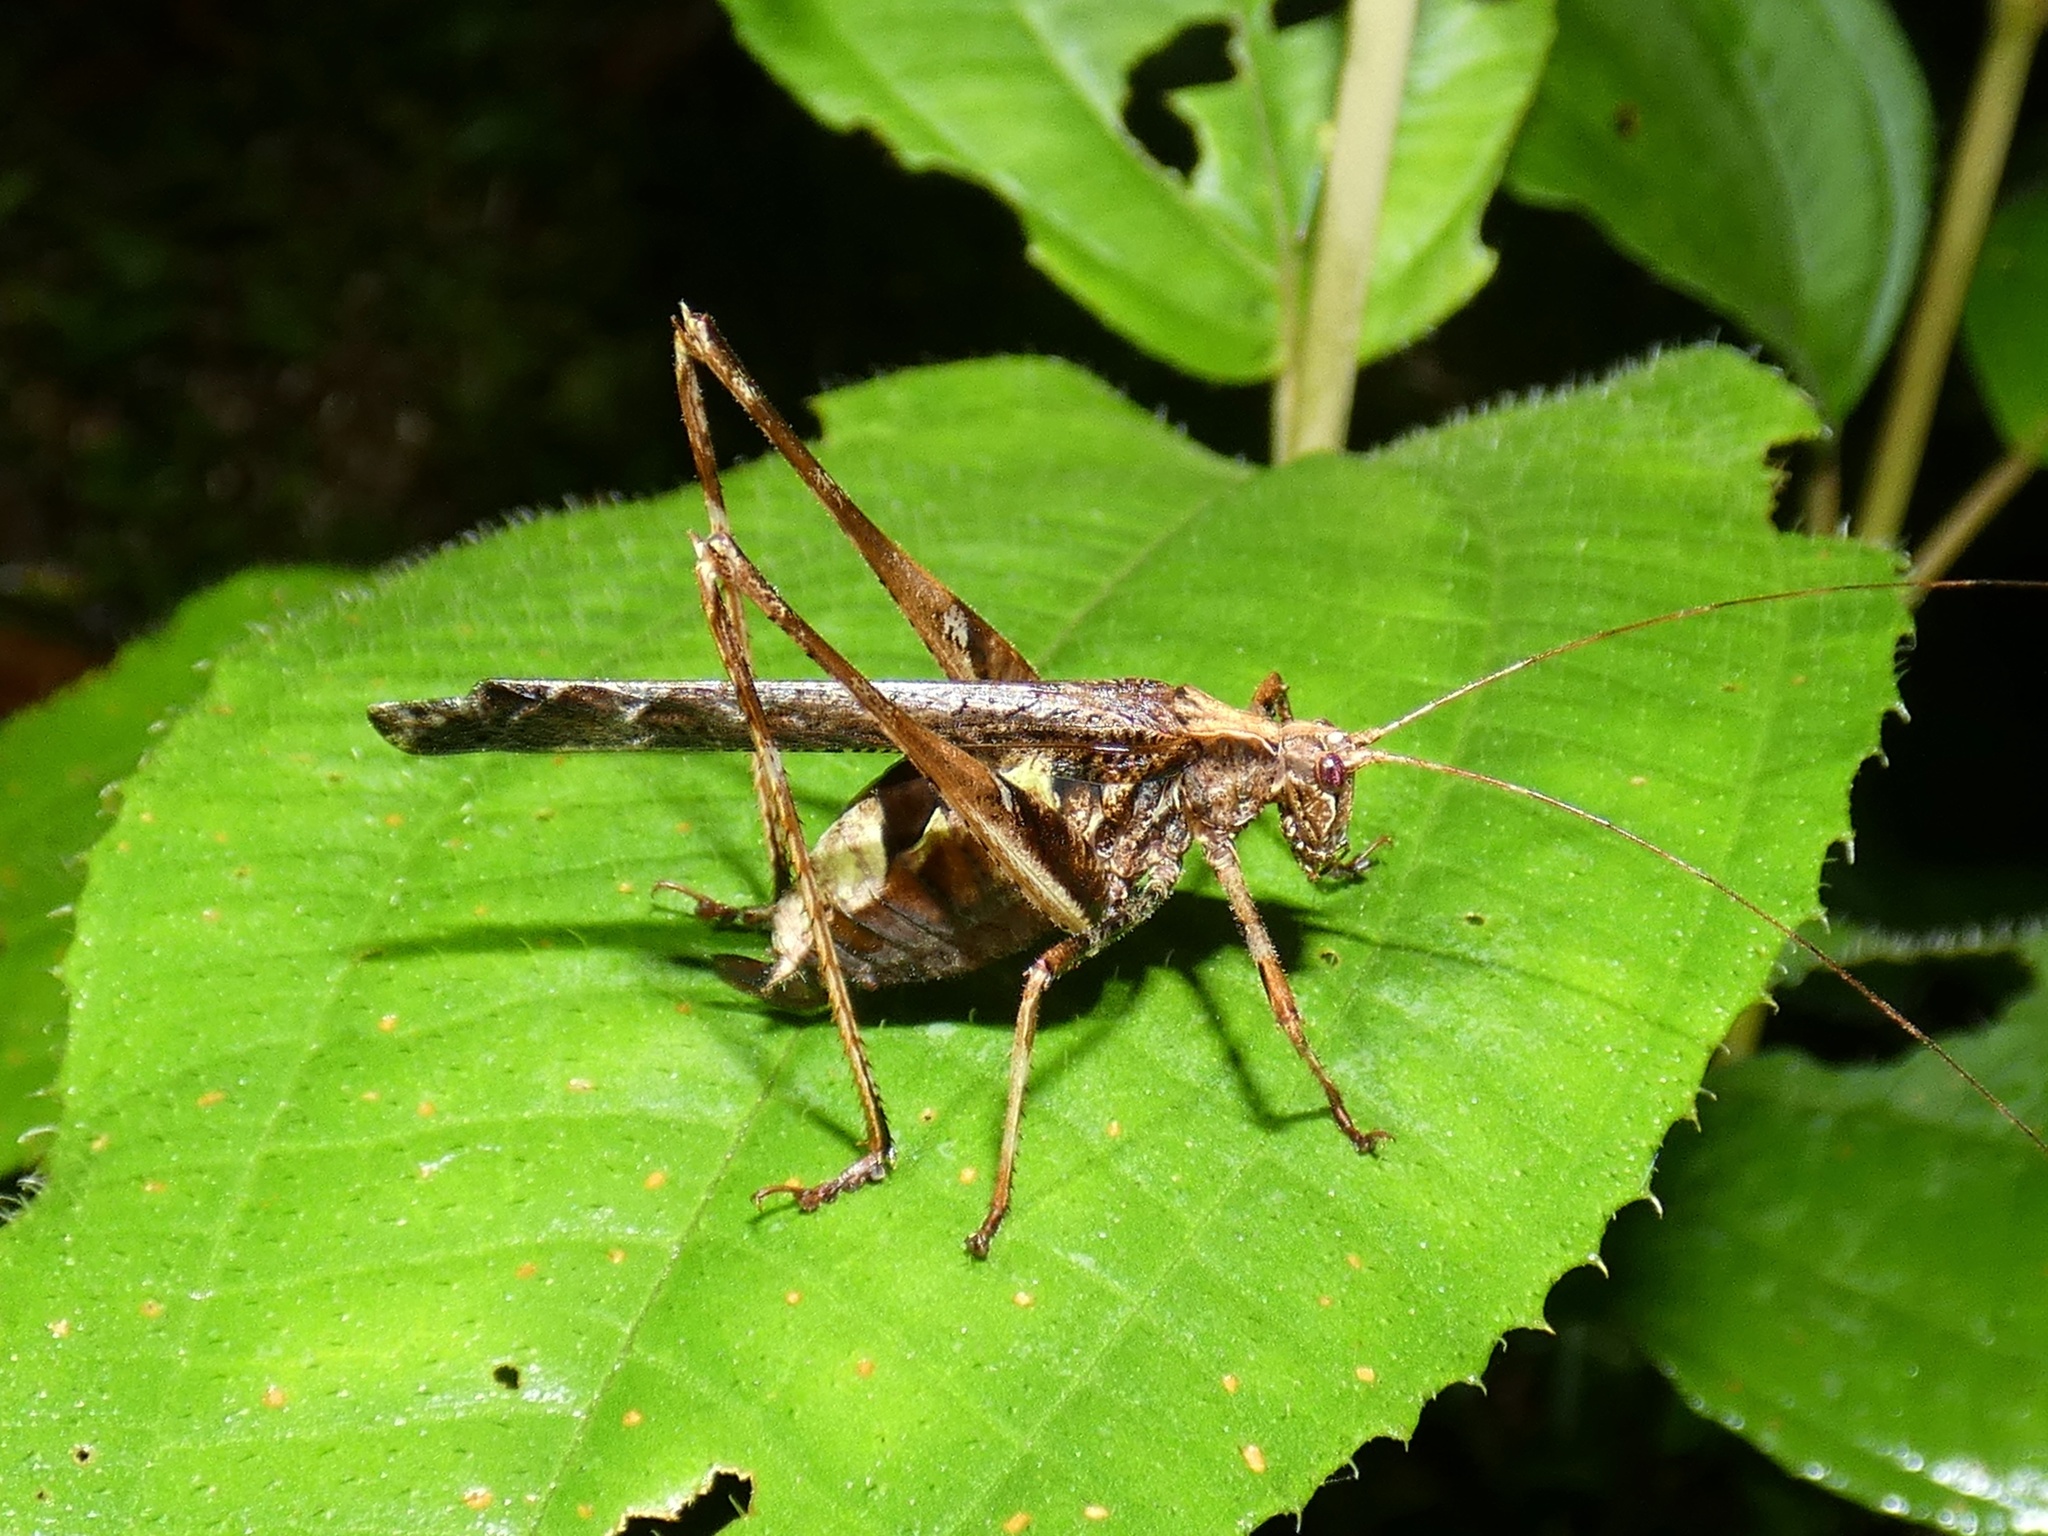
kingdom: Animalia
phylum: Arthropoda
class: Insecta
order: Orthoptera
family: Tettigoniidae
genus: Insara
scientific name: Insara bolivari
